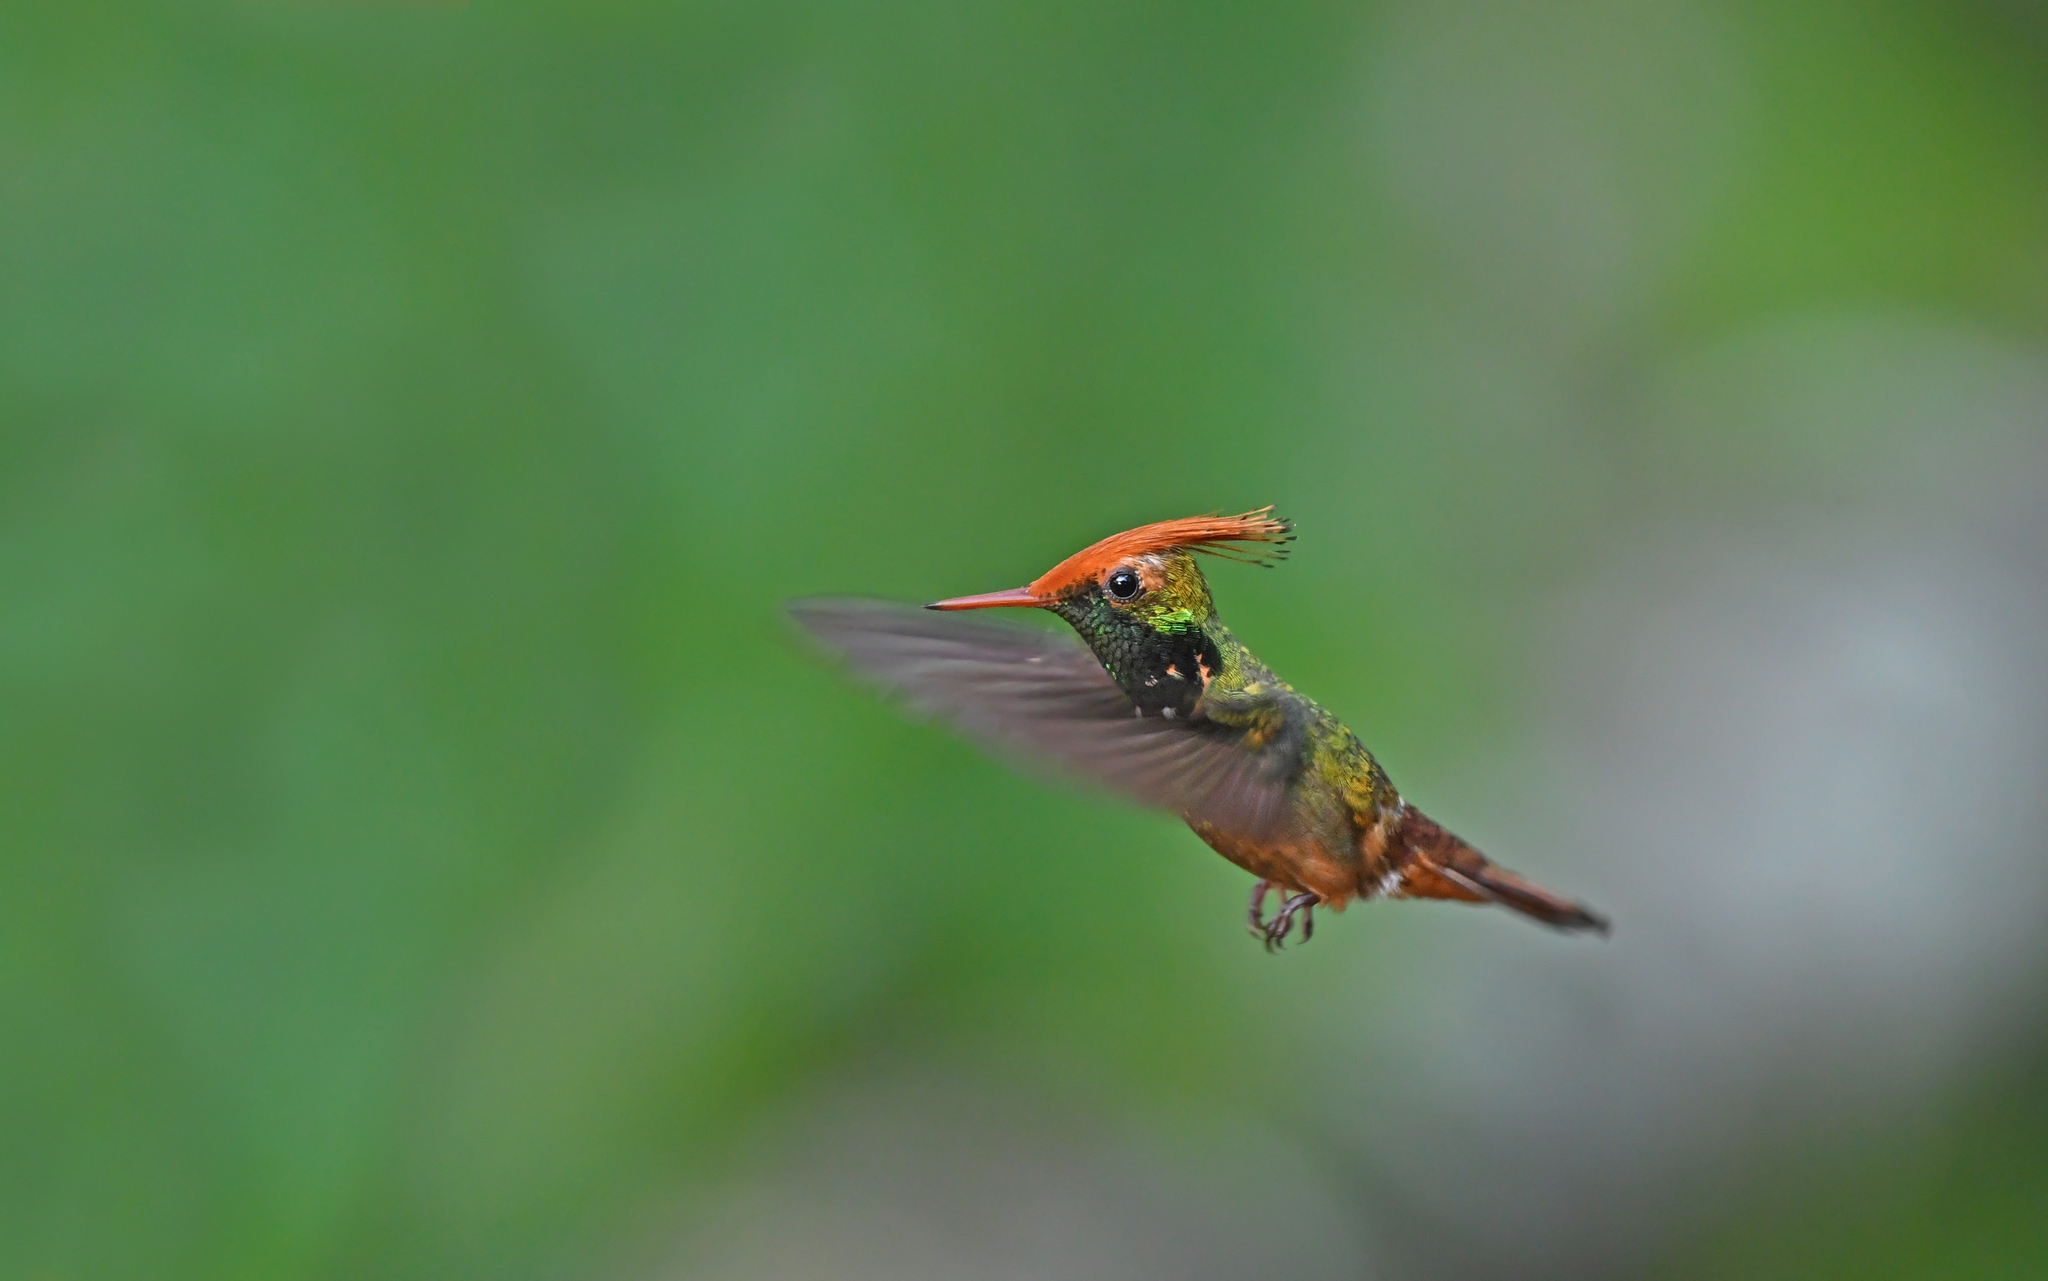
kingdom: Animalia
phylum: Chordata
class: Aves
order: Apodiformes
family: Trochilidae
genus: Lophornis
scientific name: Lophornis delattrei
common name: Rufous-crested coquette
